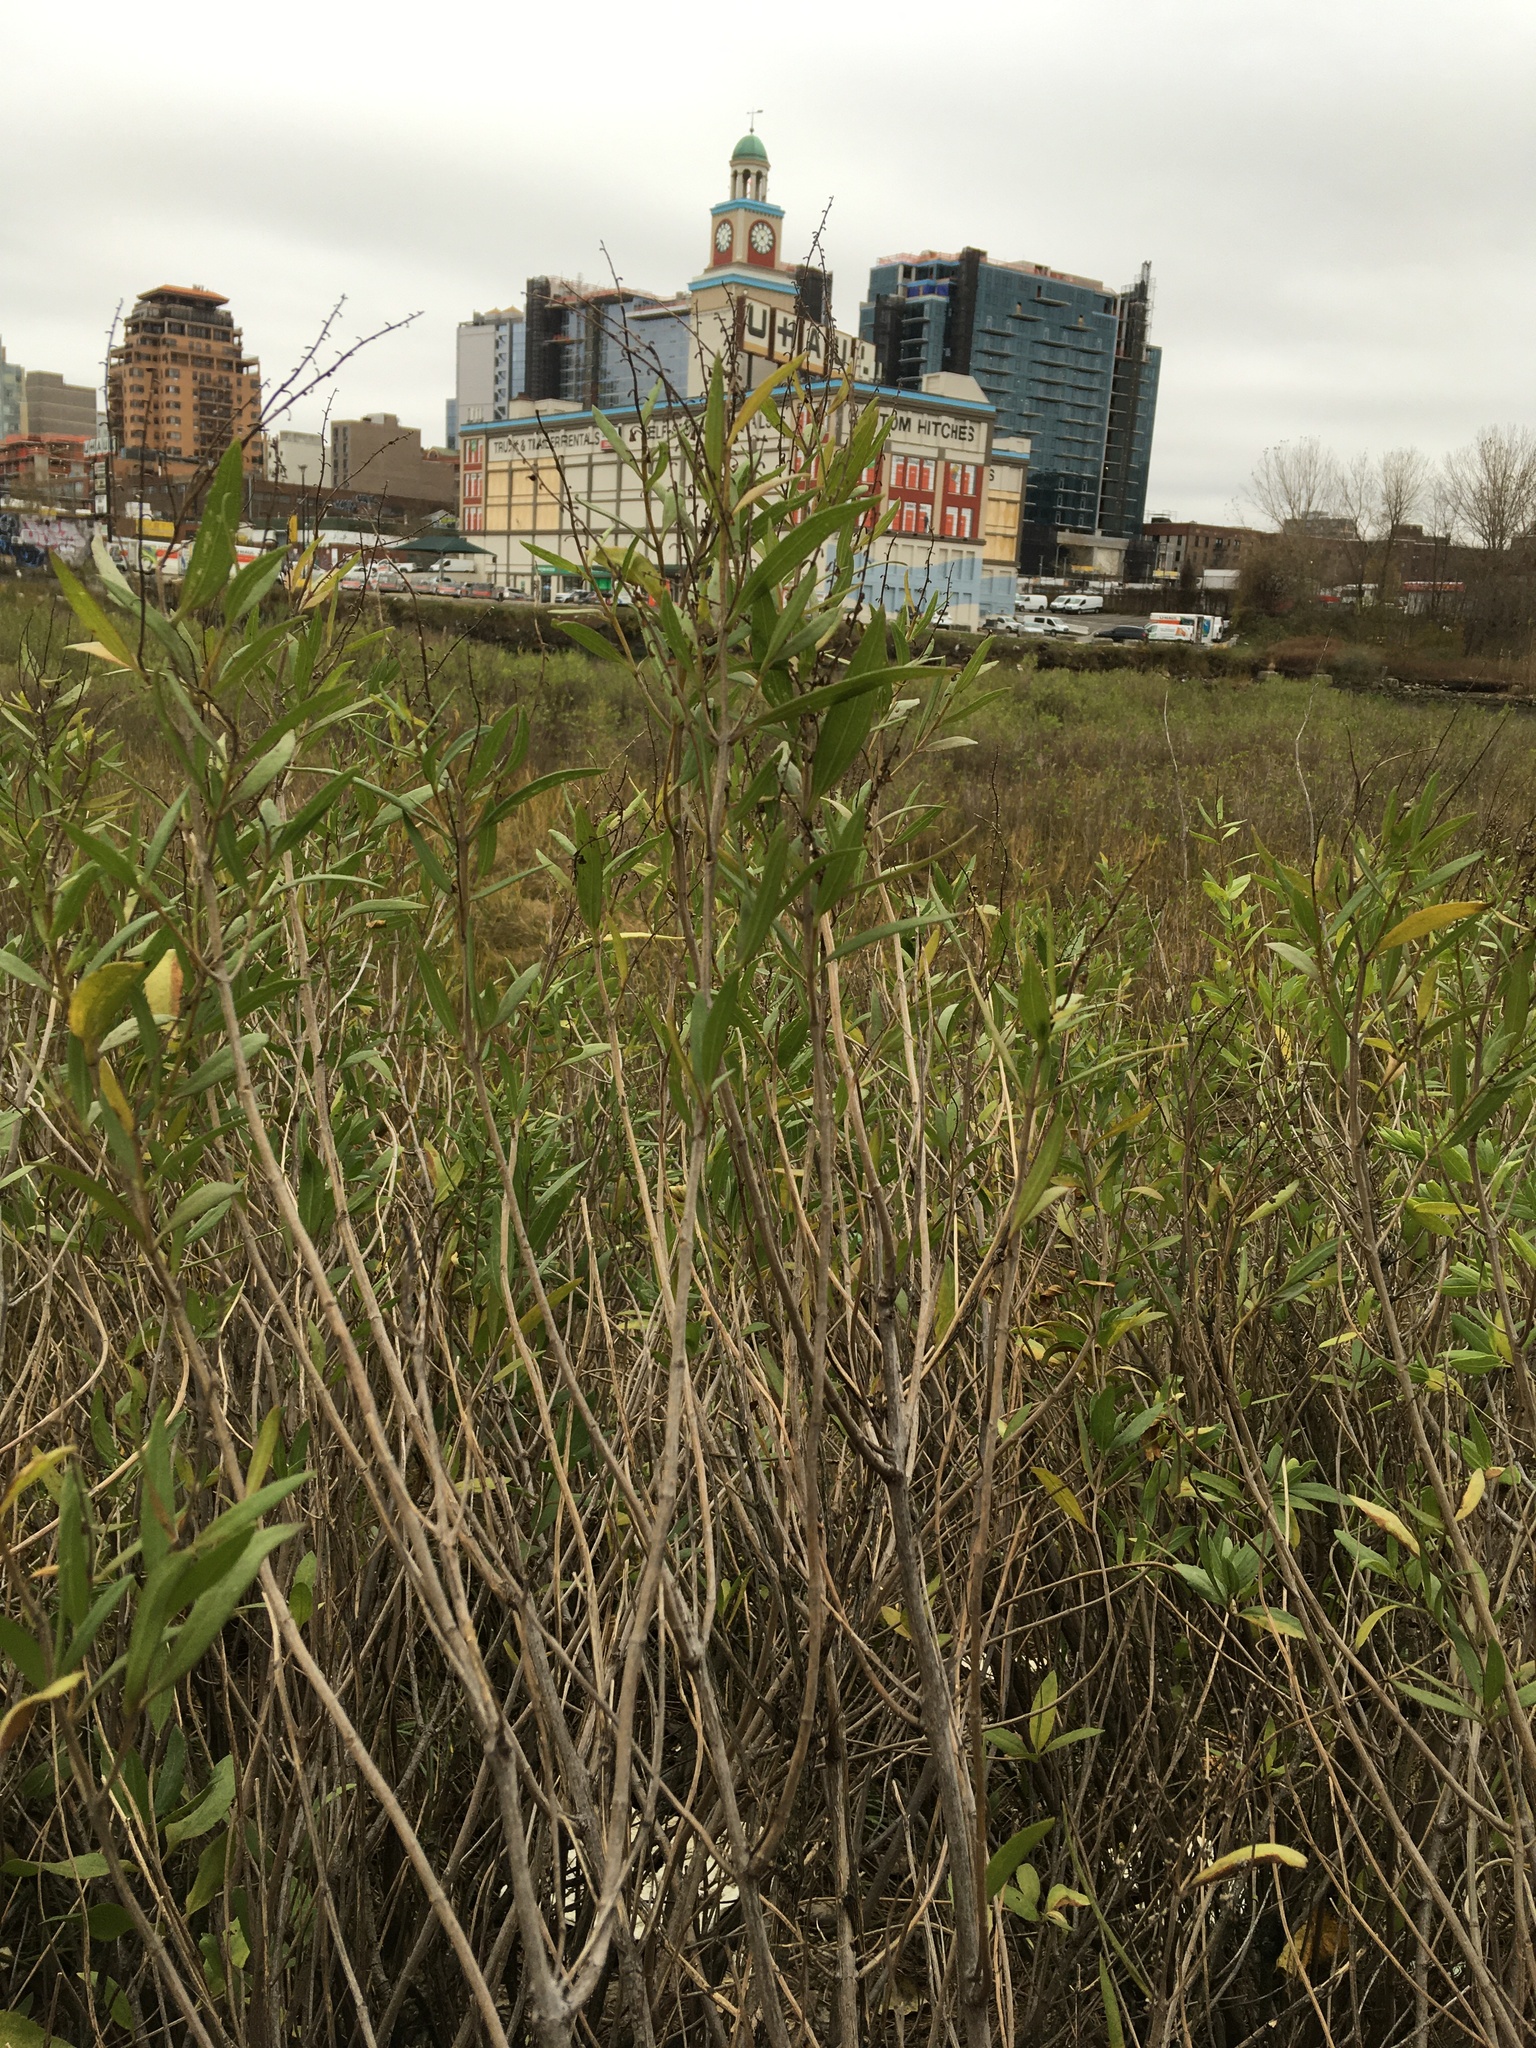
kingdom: Plantae
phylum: Tracheophyta
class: Magnoliopsida
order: Asterales
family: Asteraceae
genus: Iva
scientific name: Iva frutescens
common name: Big-leaved marsh-elder
